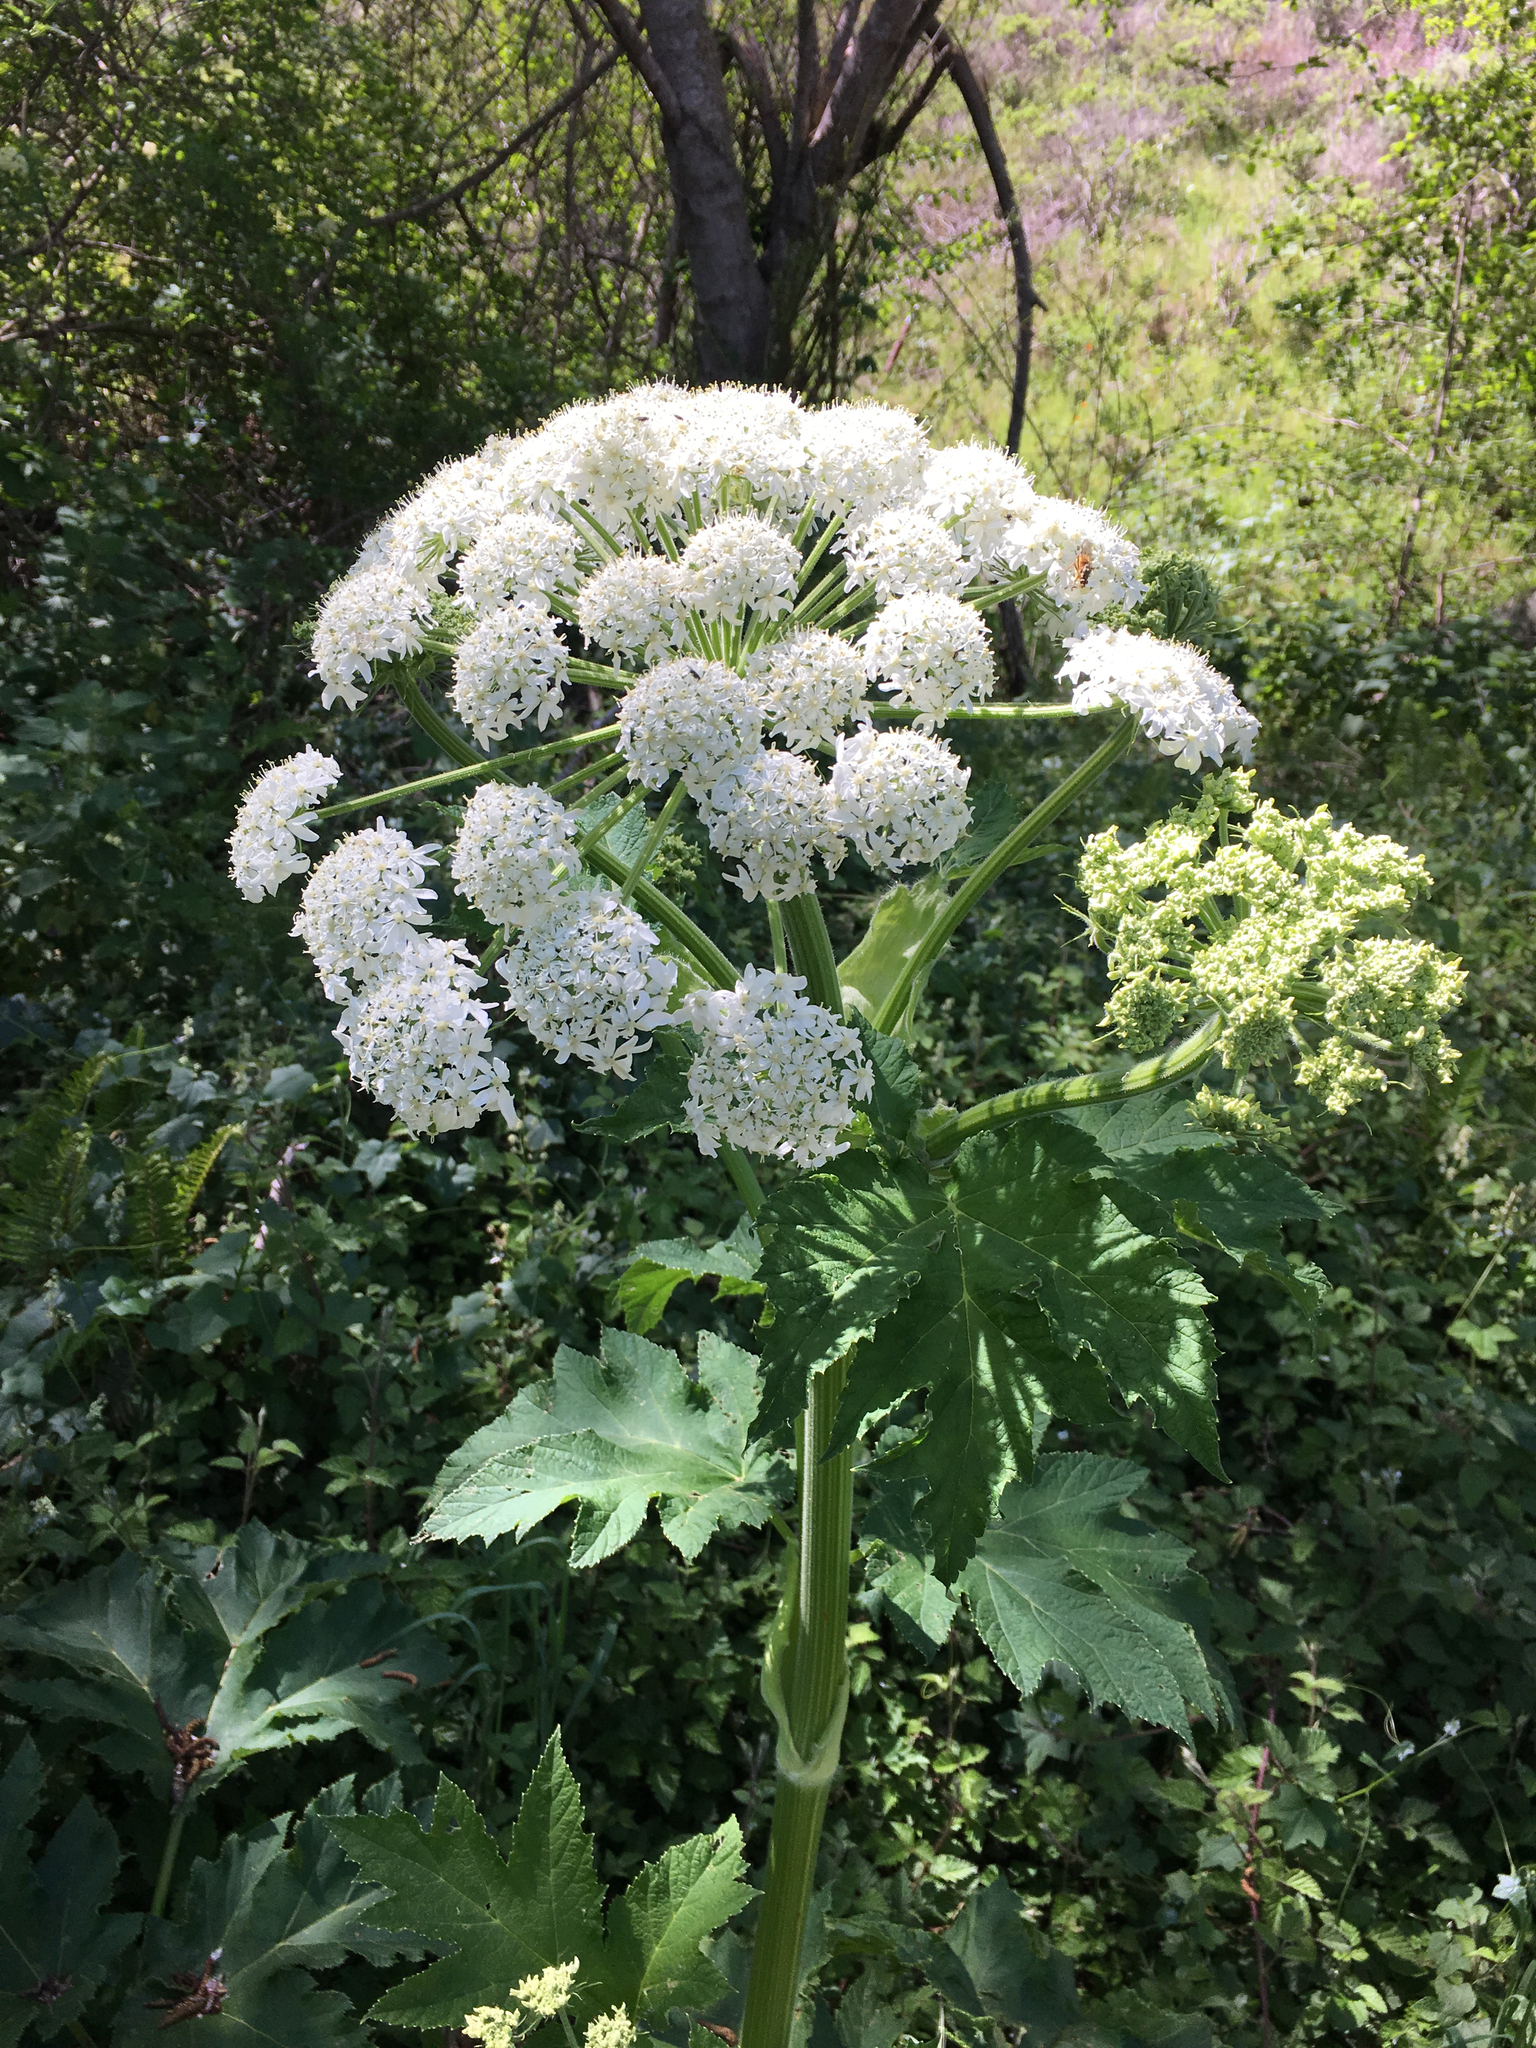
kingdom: Plantae
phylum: Tracheophyta
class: Magnoliopsida
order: Apiales
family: Apiaceae
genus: Heracleum
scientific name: Heracleum maximum
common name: American cow parsnip
